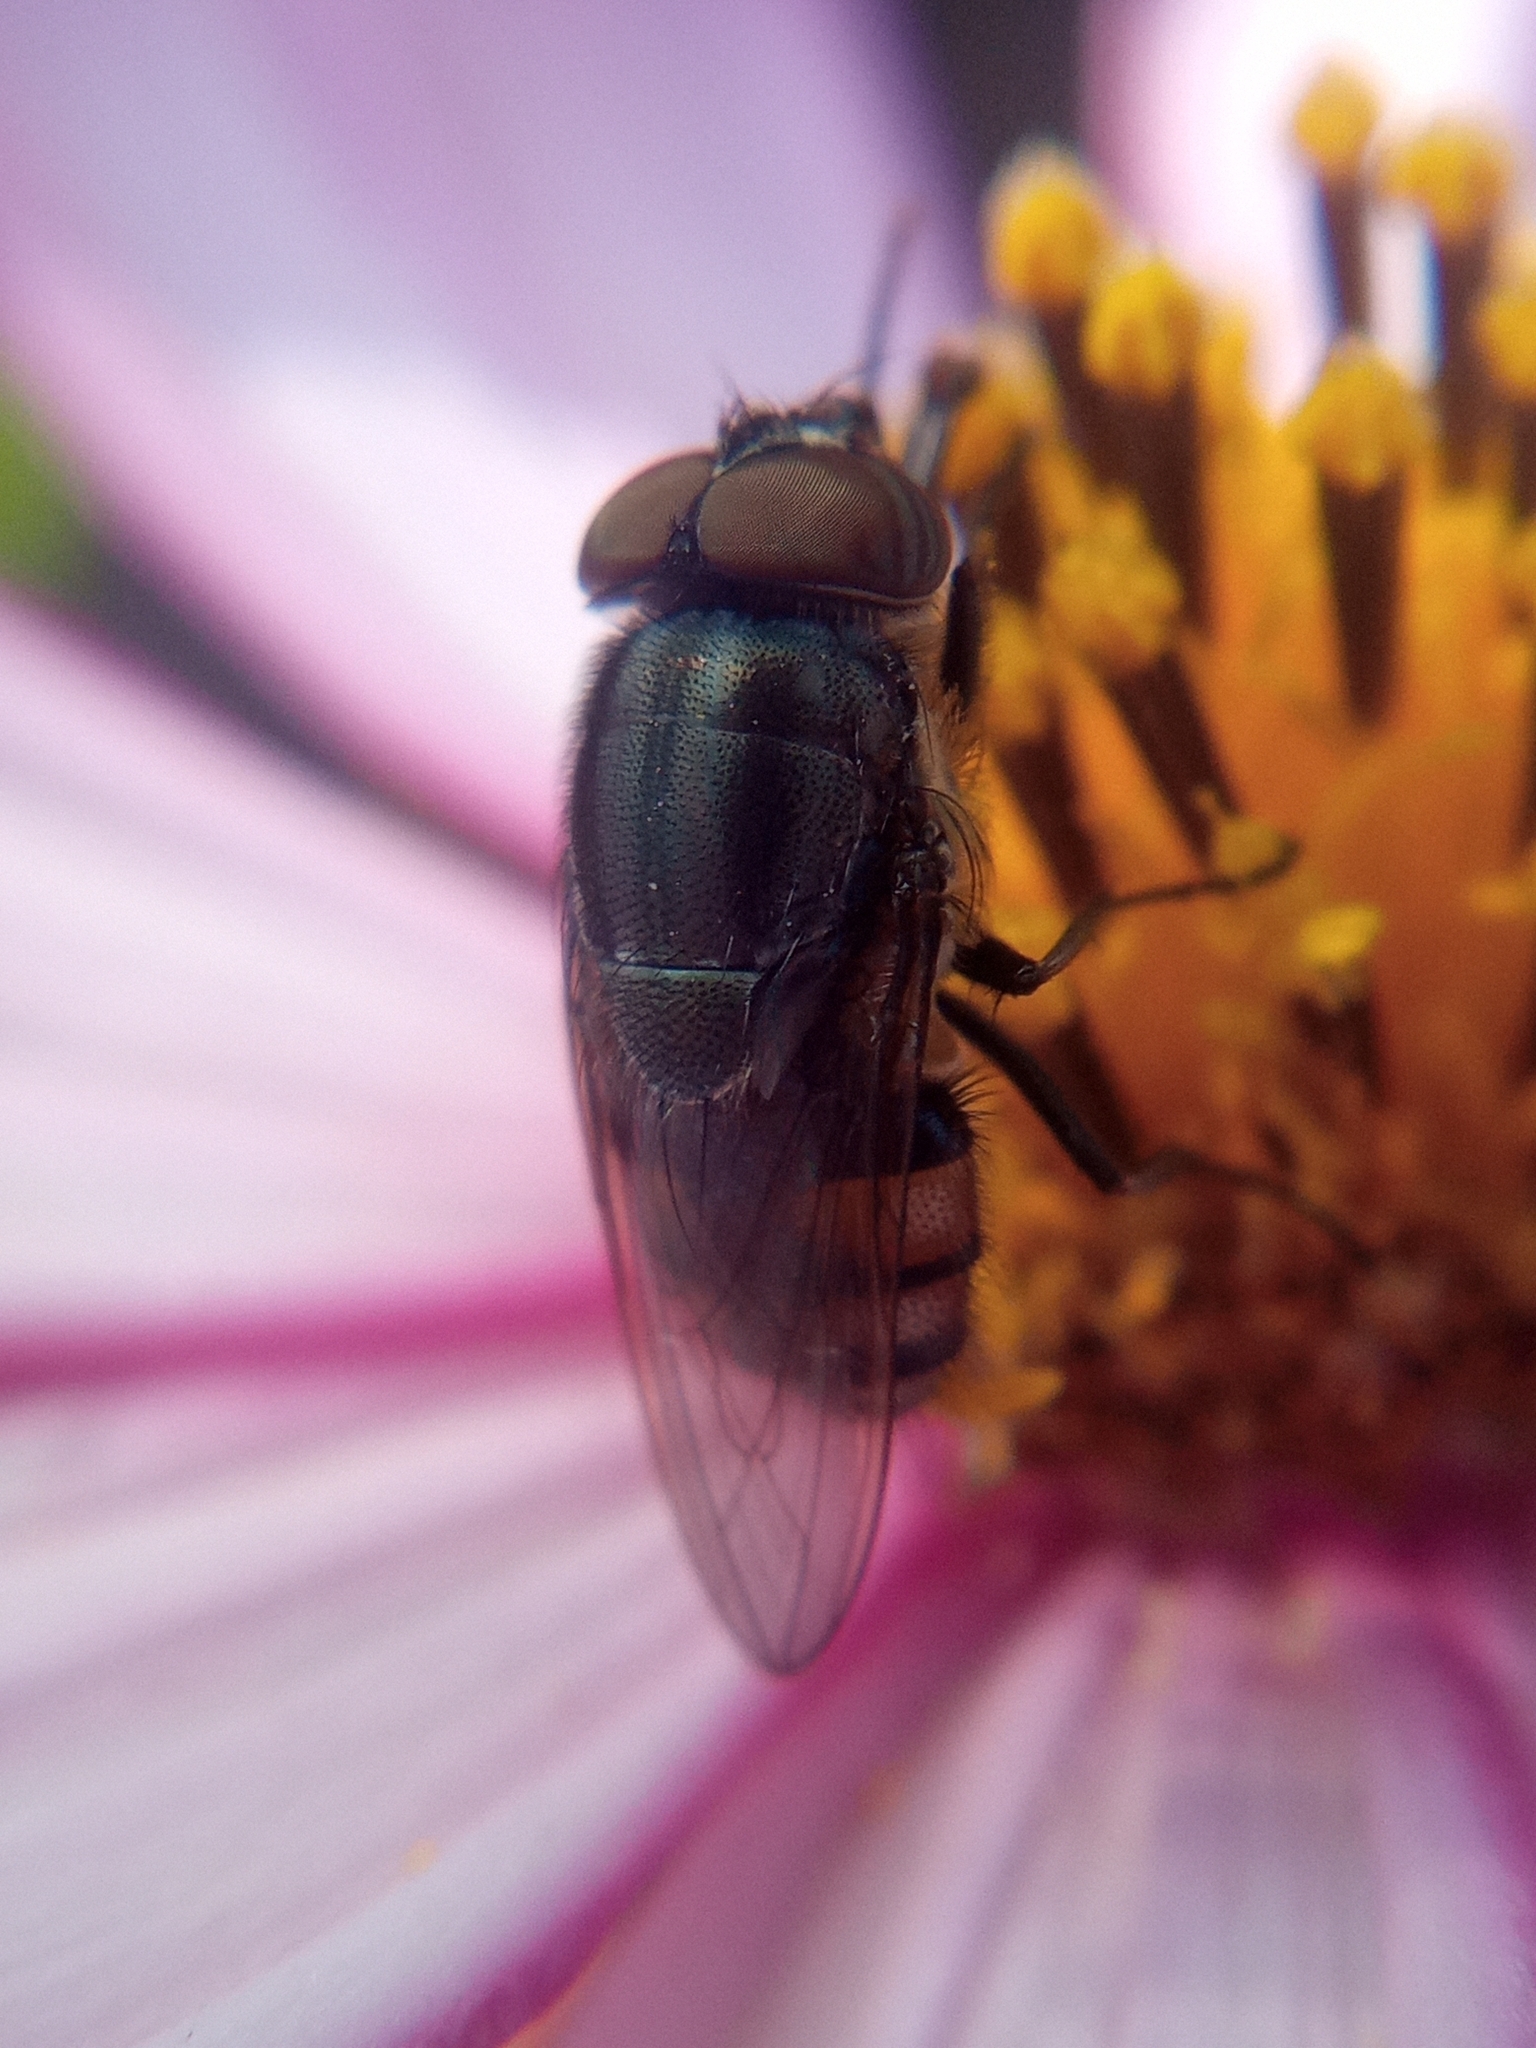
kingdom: Animalia
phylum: Arthropoda
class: Insecta
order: Diptera
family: Calliphoridae
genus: Stomorhina
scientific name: Stomorhina lunata
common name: Locust blowfly
